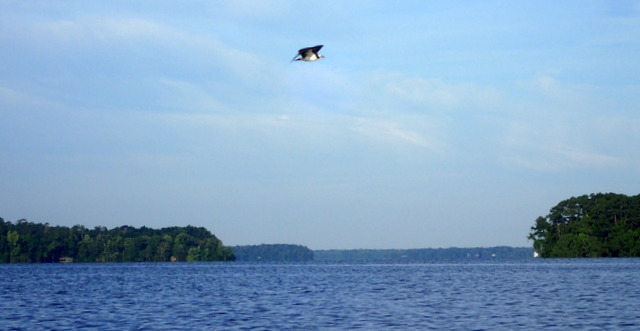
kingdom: Animalia
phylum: Chordata
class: Aves
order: Accipitriformes
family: Pandionidae
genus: Pandion
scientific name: Pandion haliaetus
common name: Osprey
